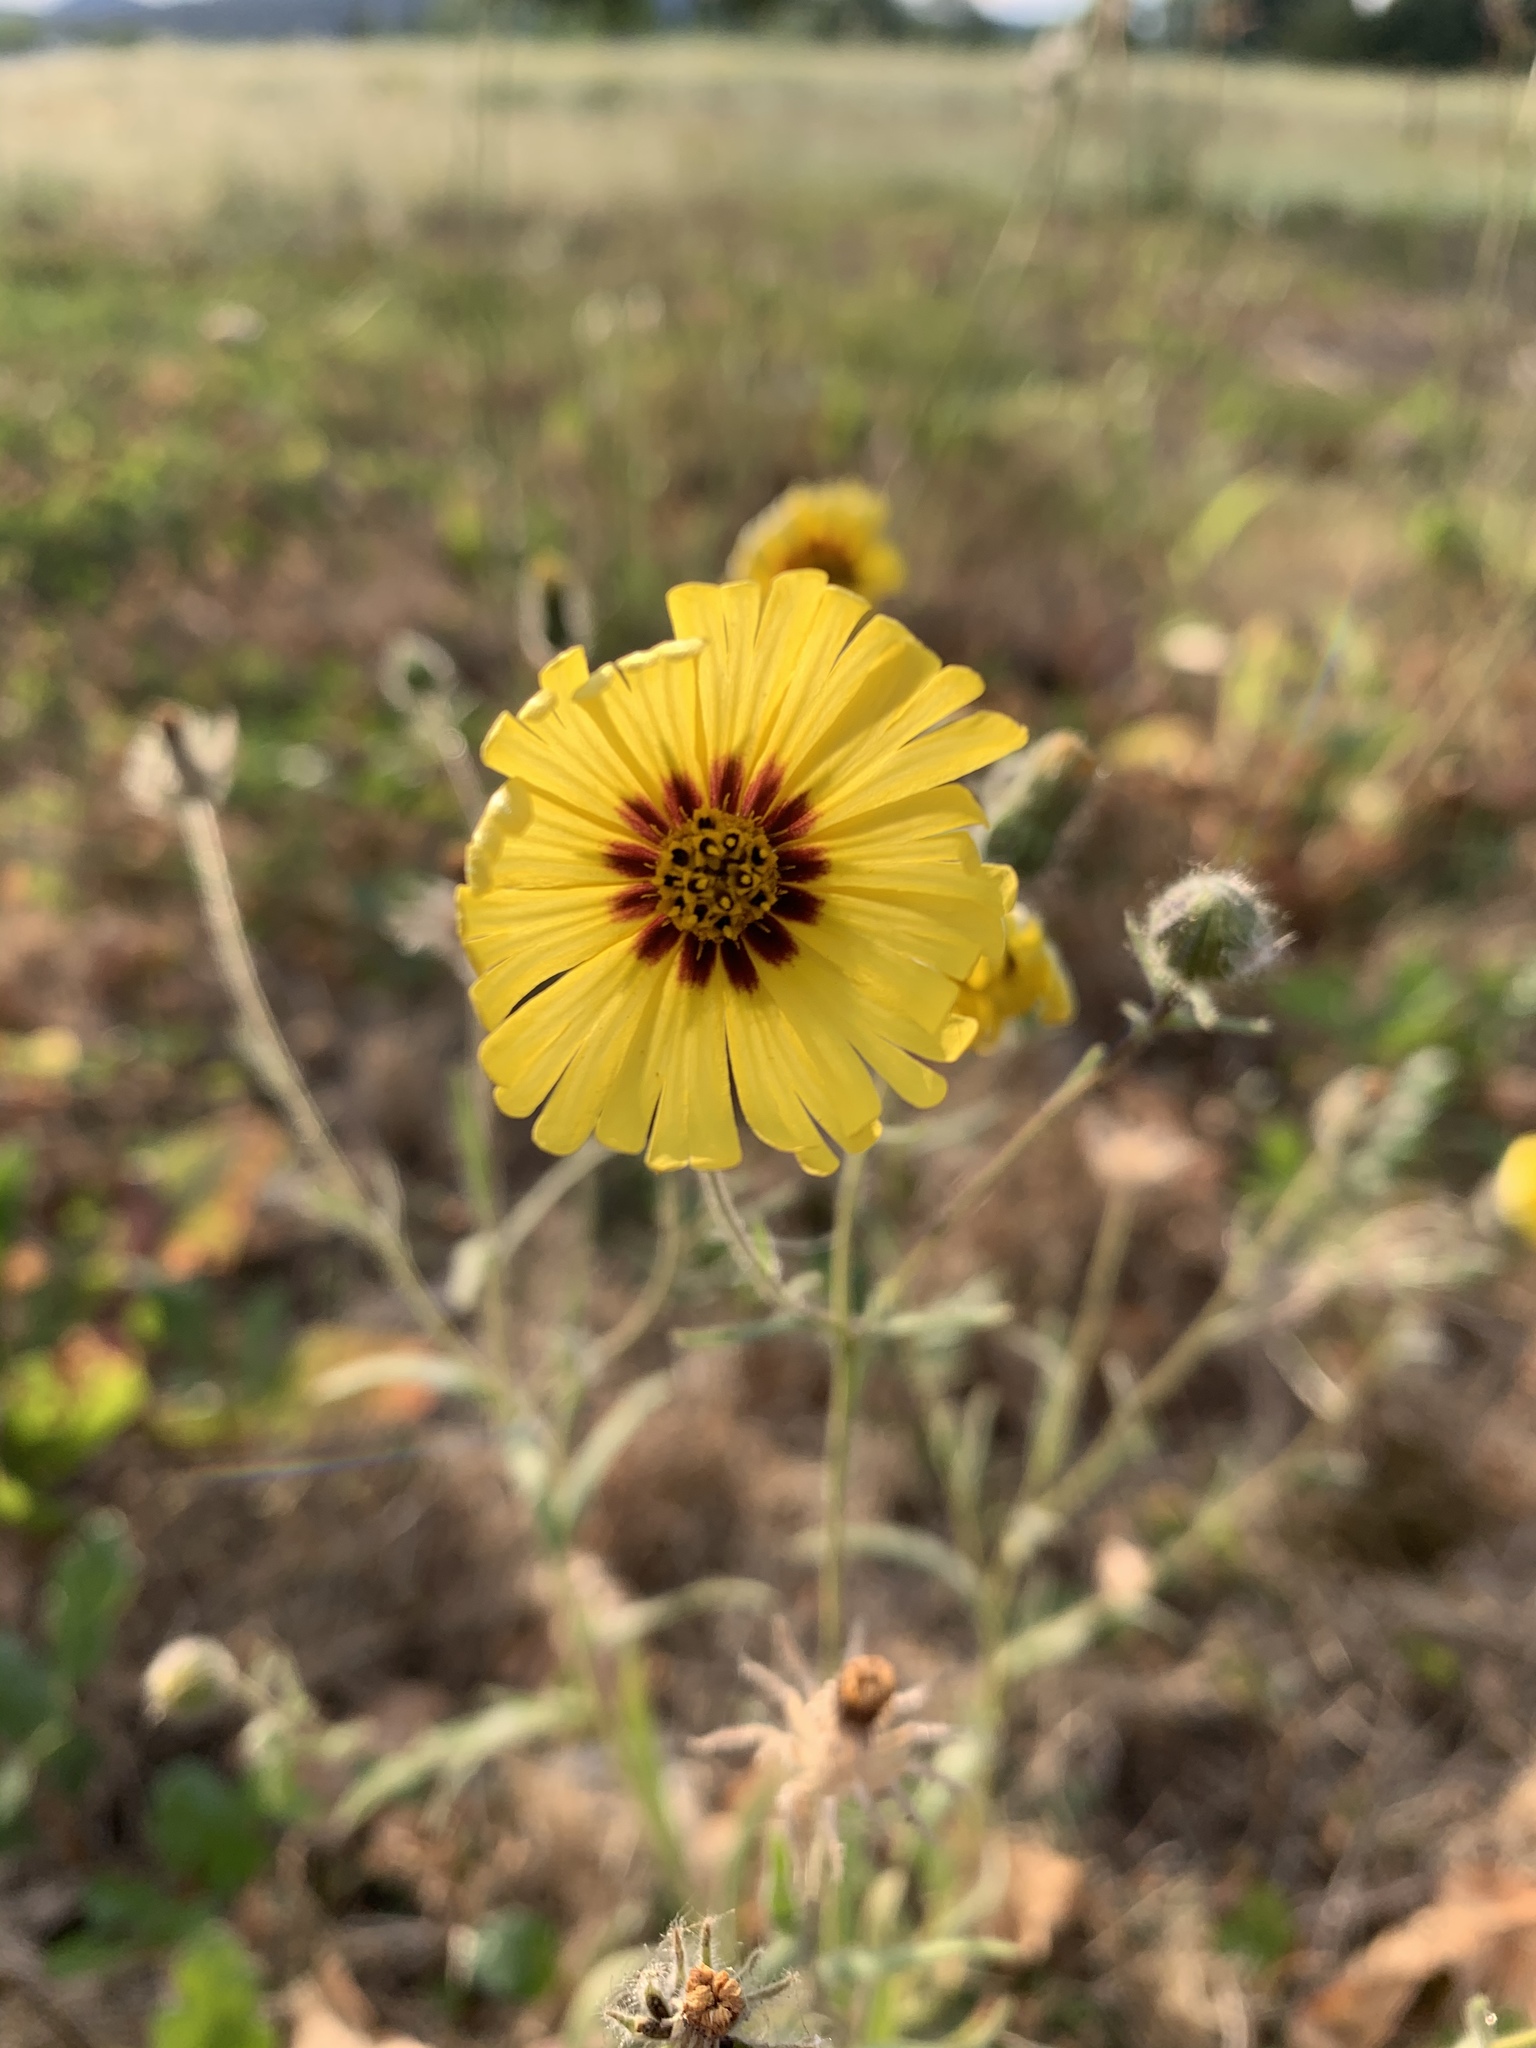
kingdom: Plantae
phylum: Tracheophyta
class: Magnoliopsida
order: Asterales
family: Asteraceae
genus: Madia
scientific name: Madia elegans
